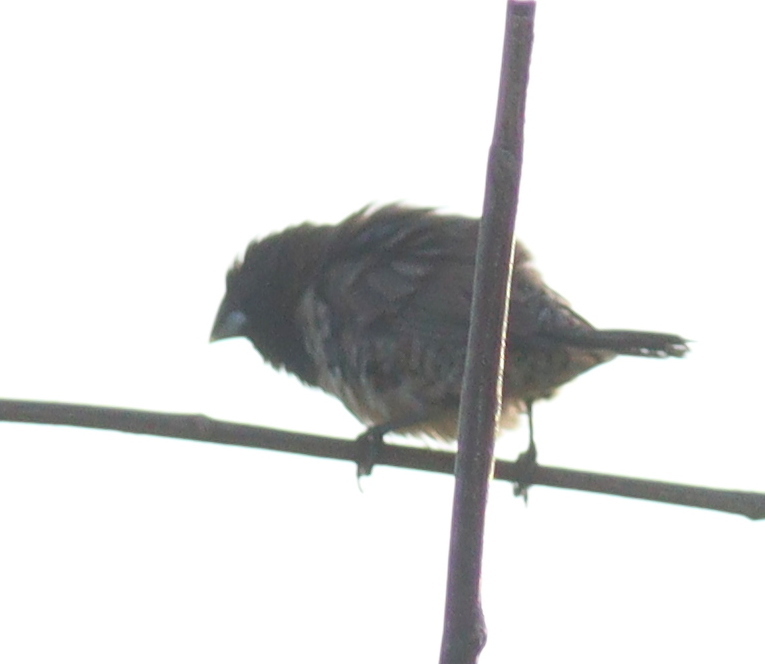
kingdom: Animalia
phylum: Chordata
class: Aves
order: Passeriformes
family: Estrildidae
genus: Lonchura
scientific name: Lonchura cucullata
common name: Bronze mannikin
